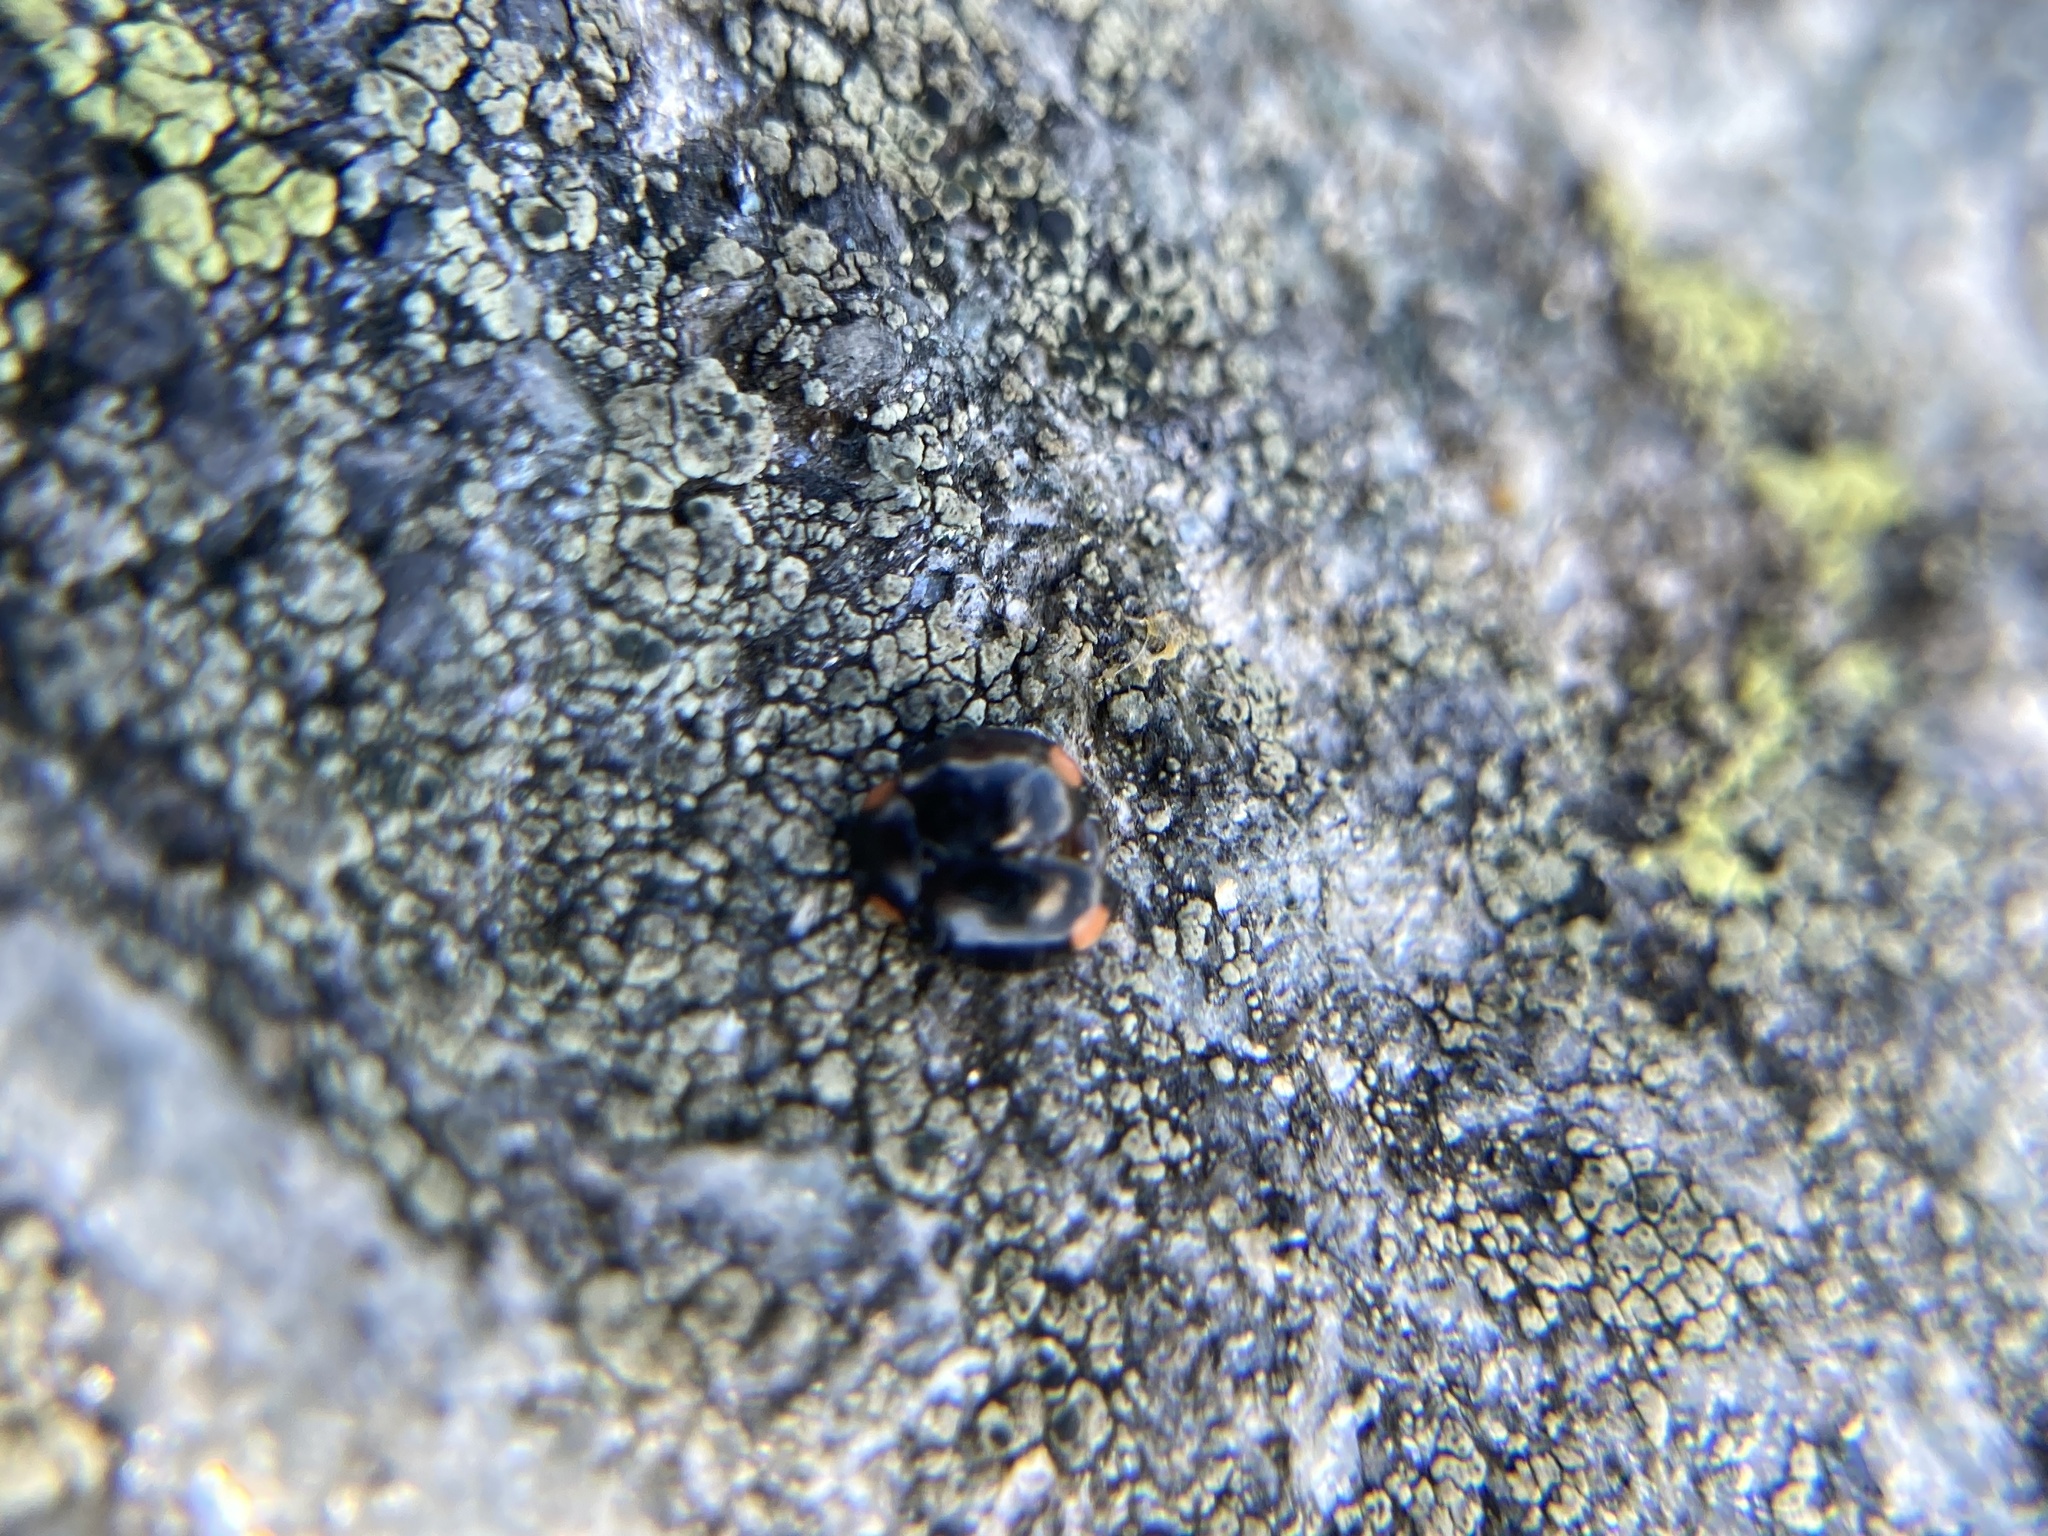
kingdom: Animalia
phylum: Arthropoda
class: Insecta
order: Coleoptera
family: Coccinellidae
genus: Hyperaspis
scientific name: Hyperaspis bigeminata
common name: Bigeminate sigil lady beetle
